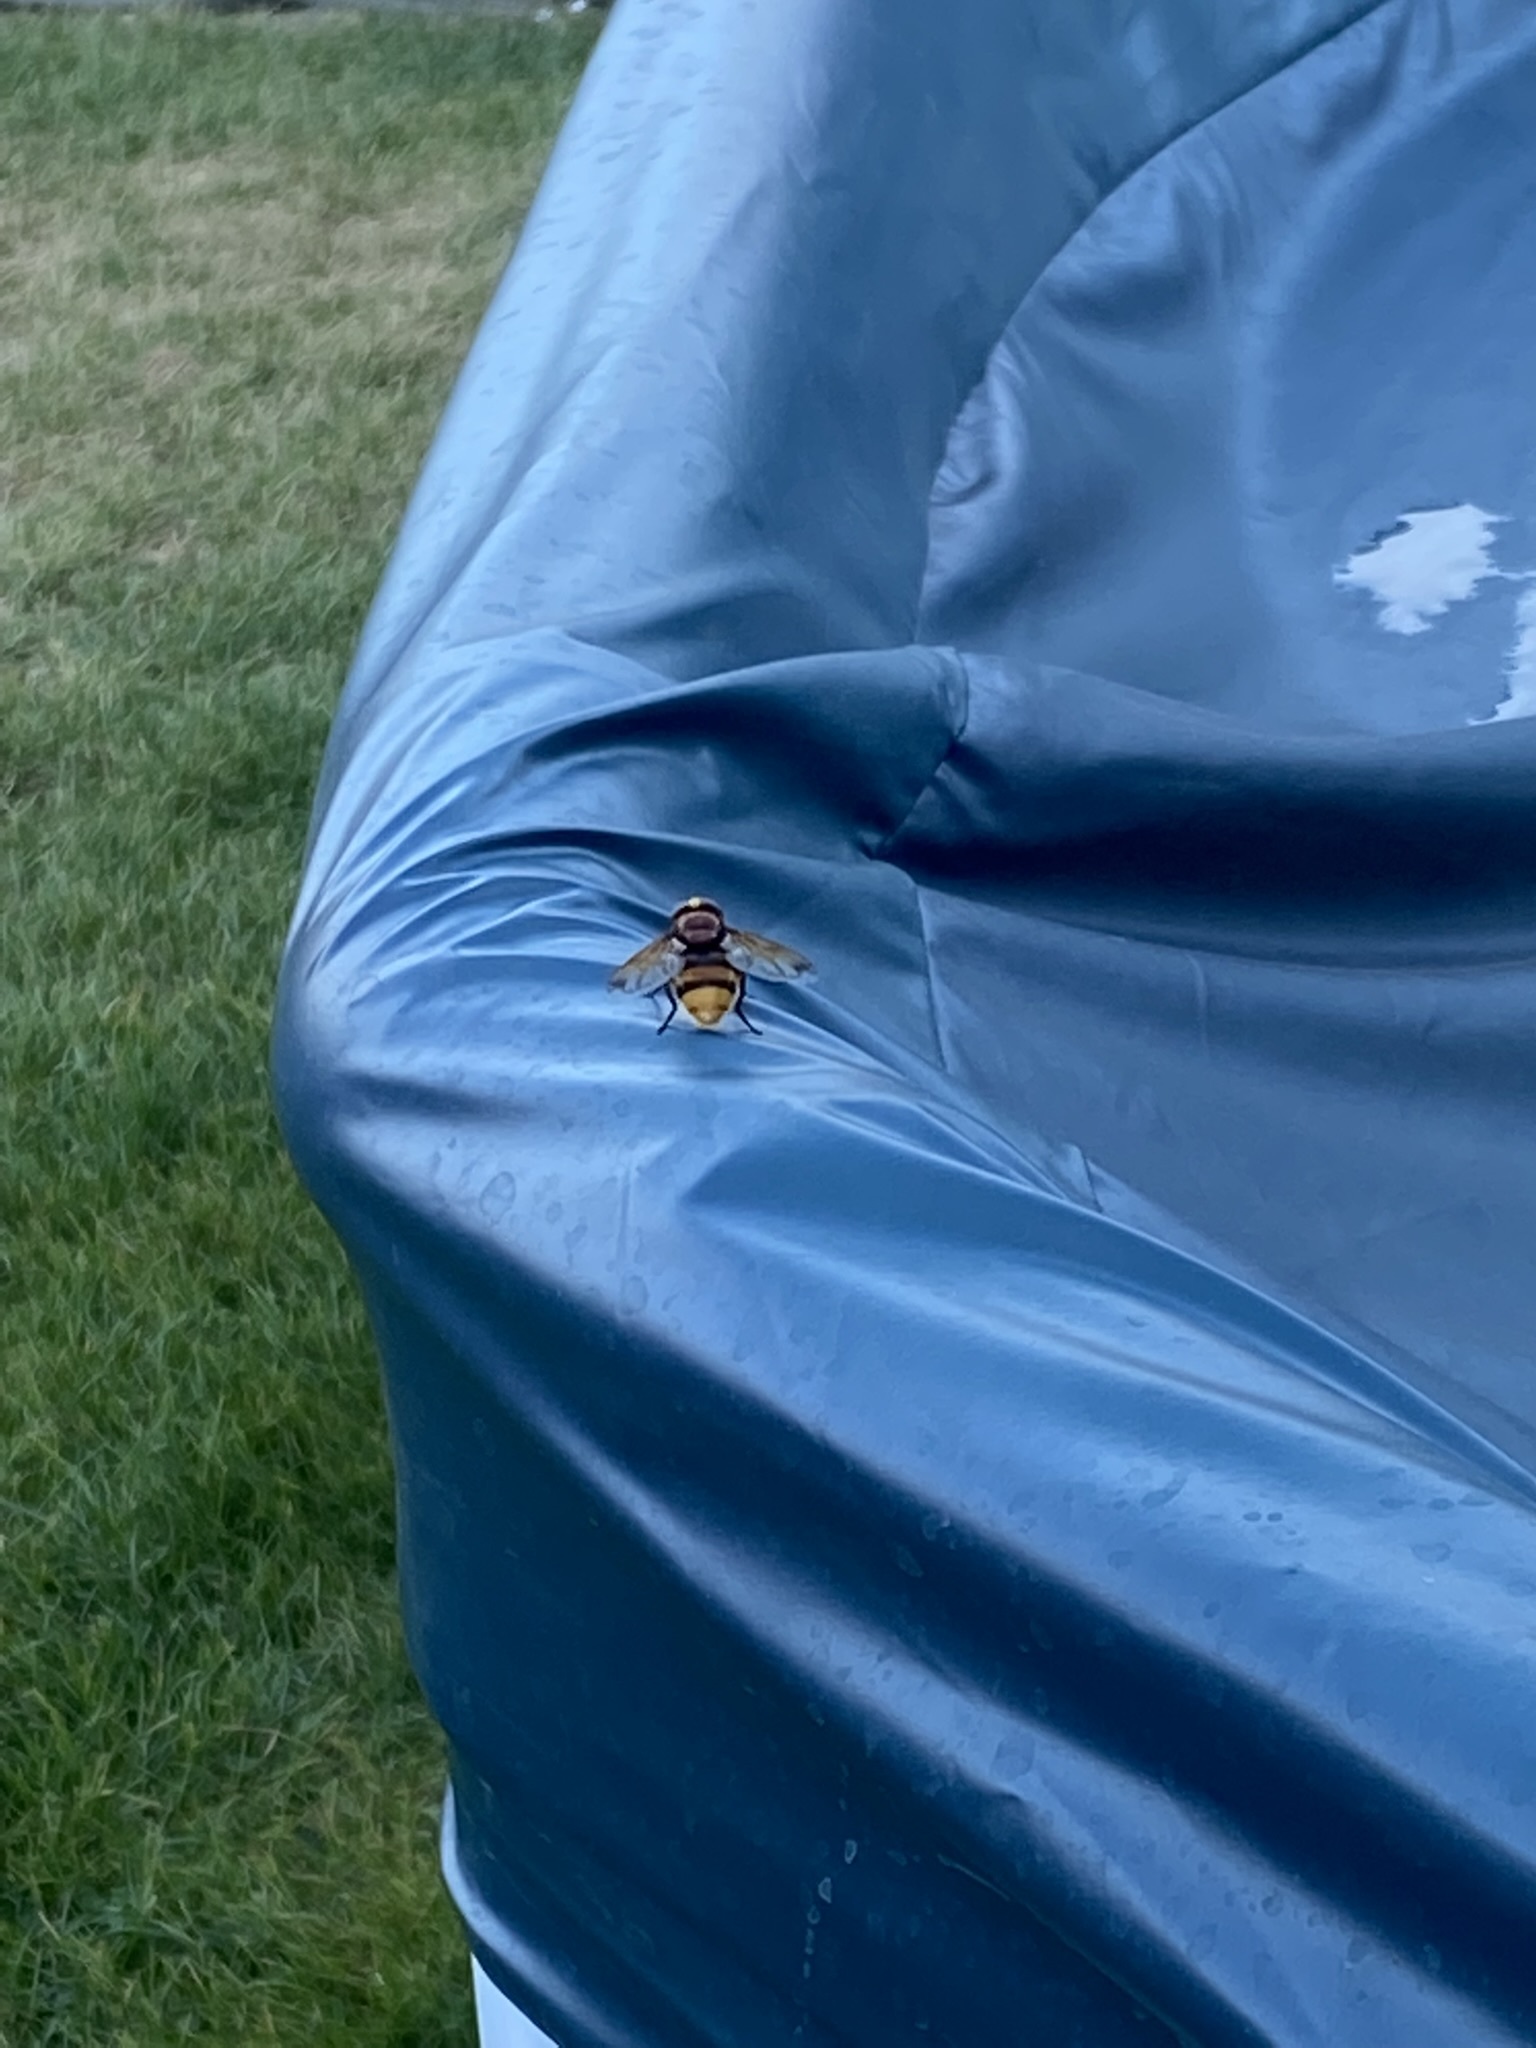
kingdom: Animalia
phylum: Arthropoda
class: Insecta
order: Diptera
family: Syrphidae
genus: Volucella
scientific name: Volucella zonaria
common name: Hornet hoverfly
